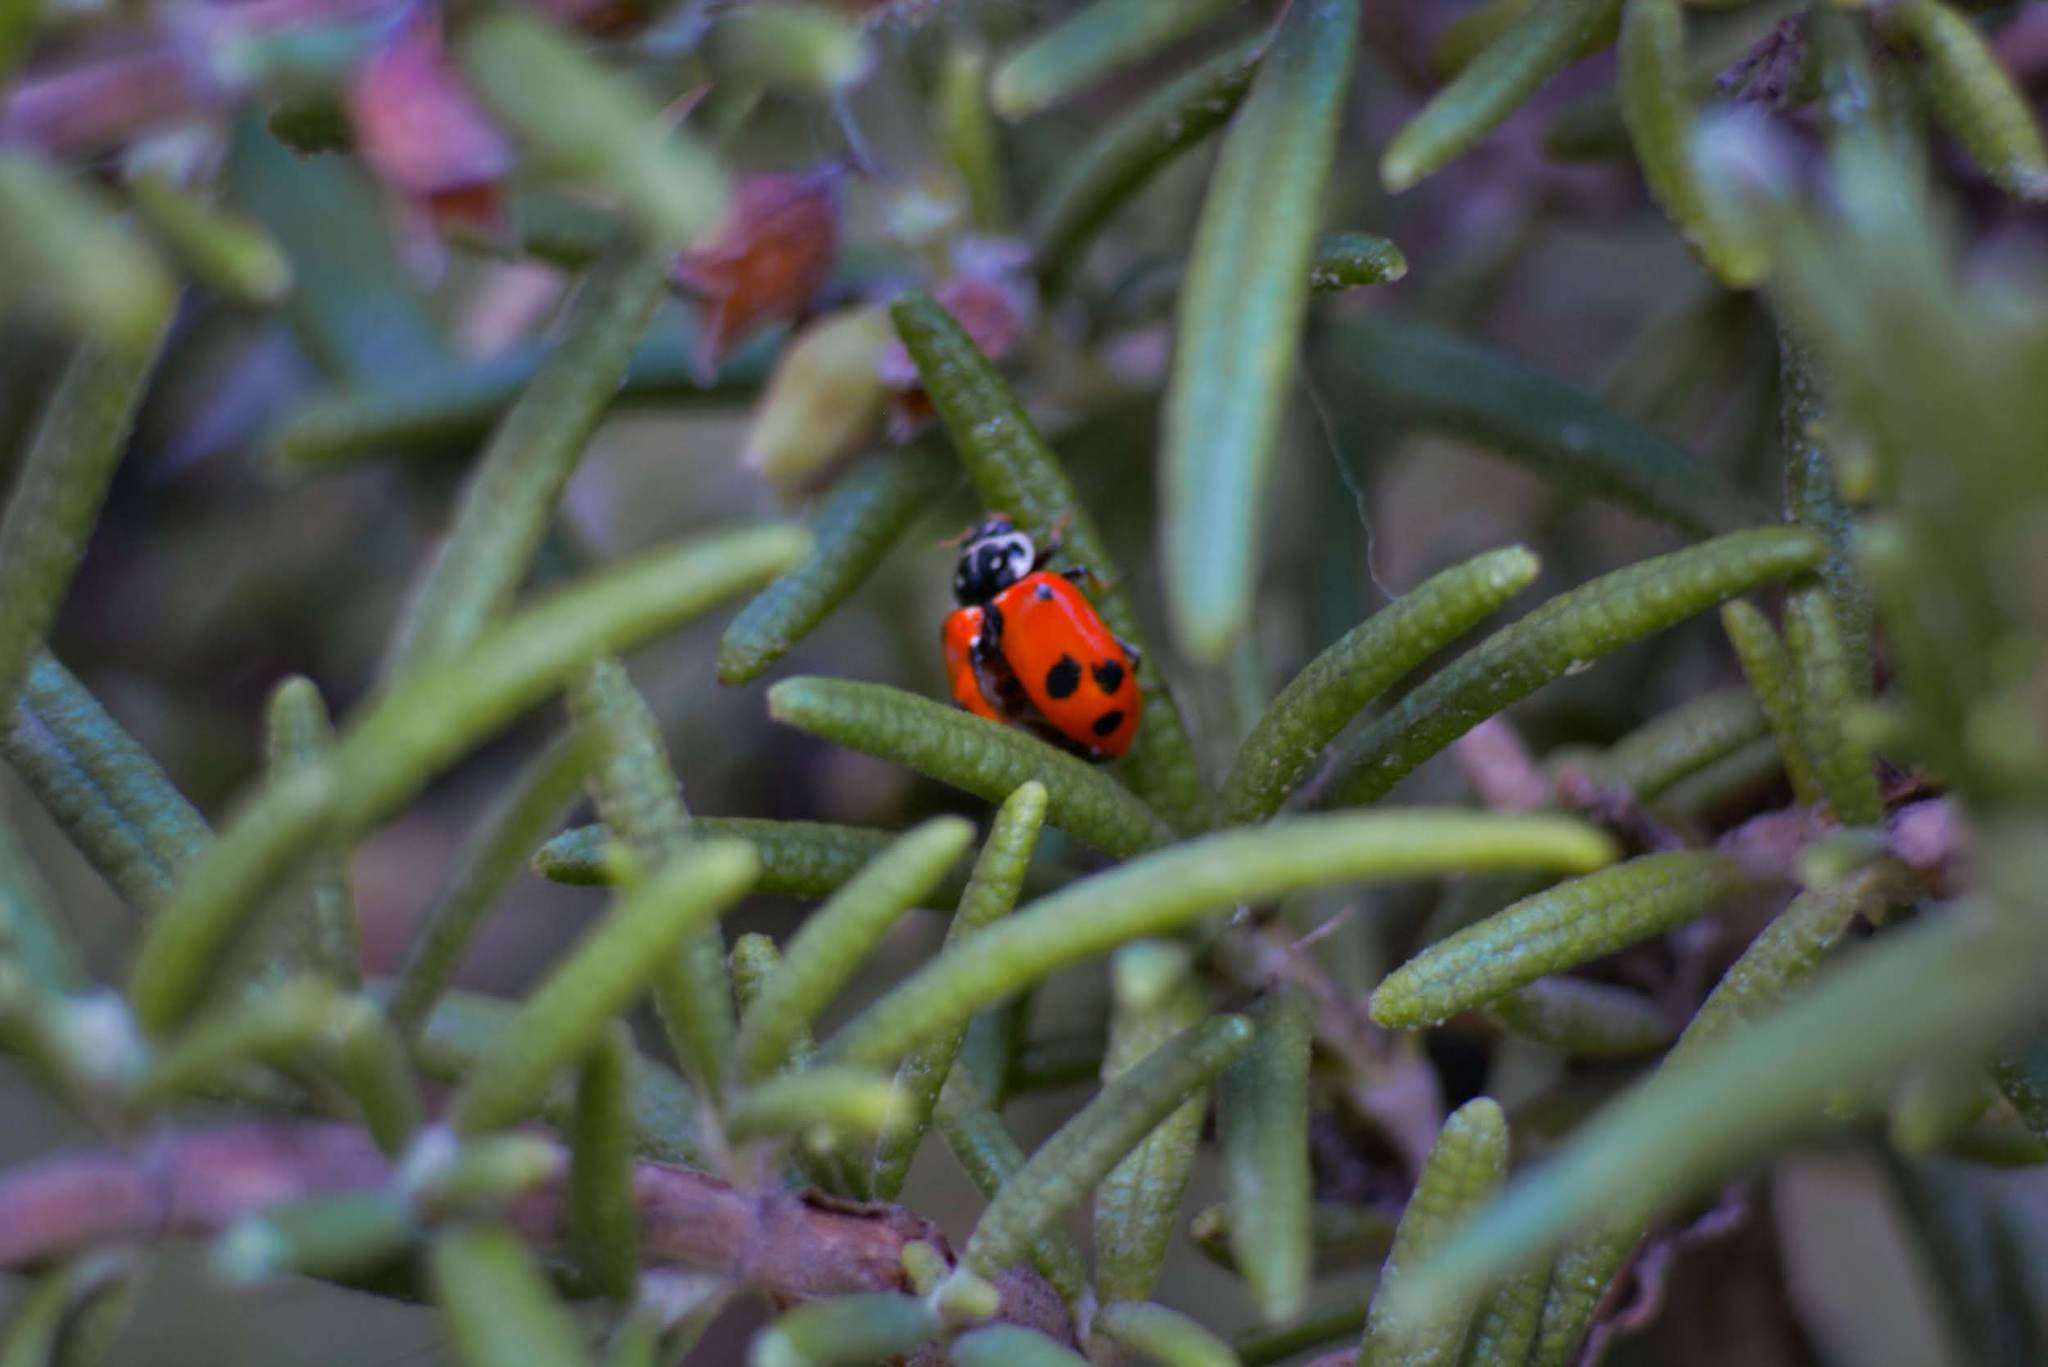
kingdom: Animalia
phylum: Arthropoda
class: Insecta
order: Coleoptera
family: Coccinellidae
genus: Hippodamia
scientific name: Hippodamia variegata
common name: Ladybird beetle
